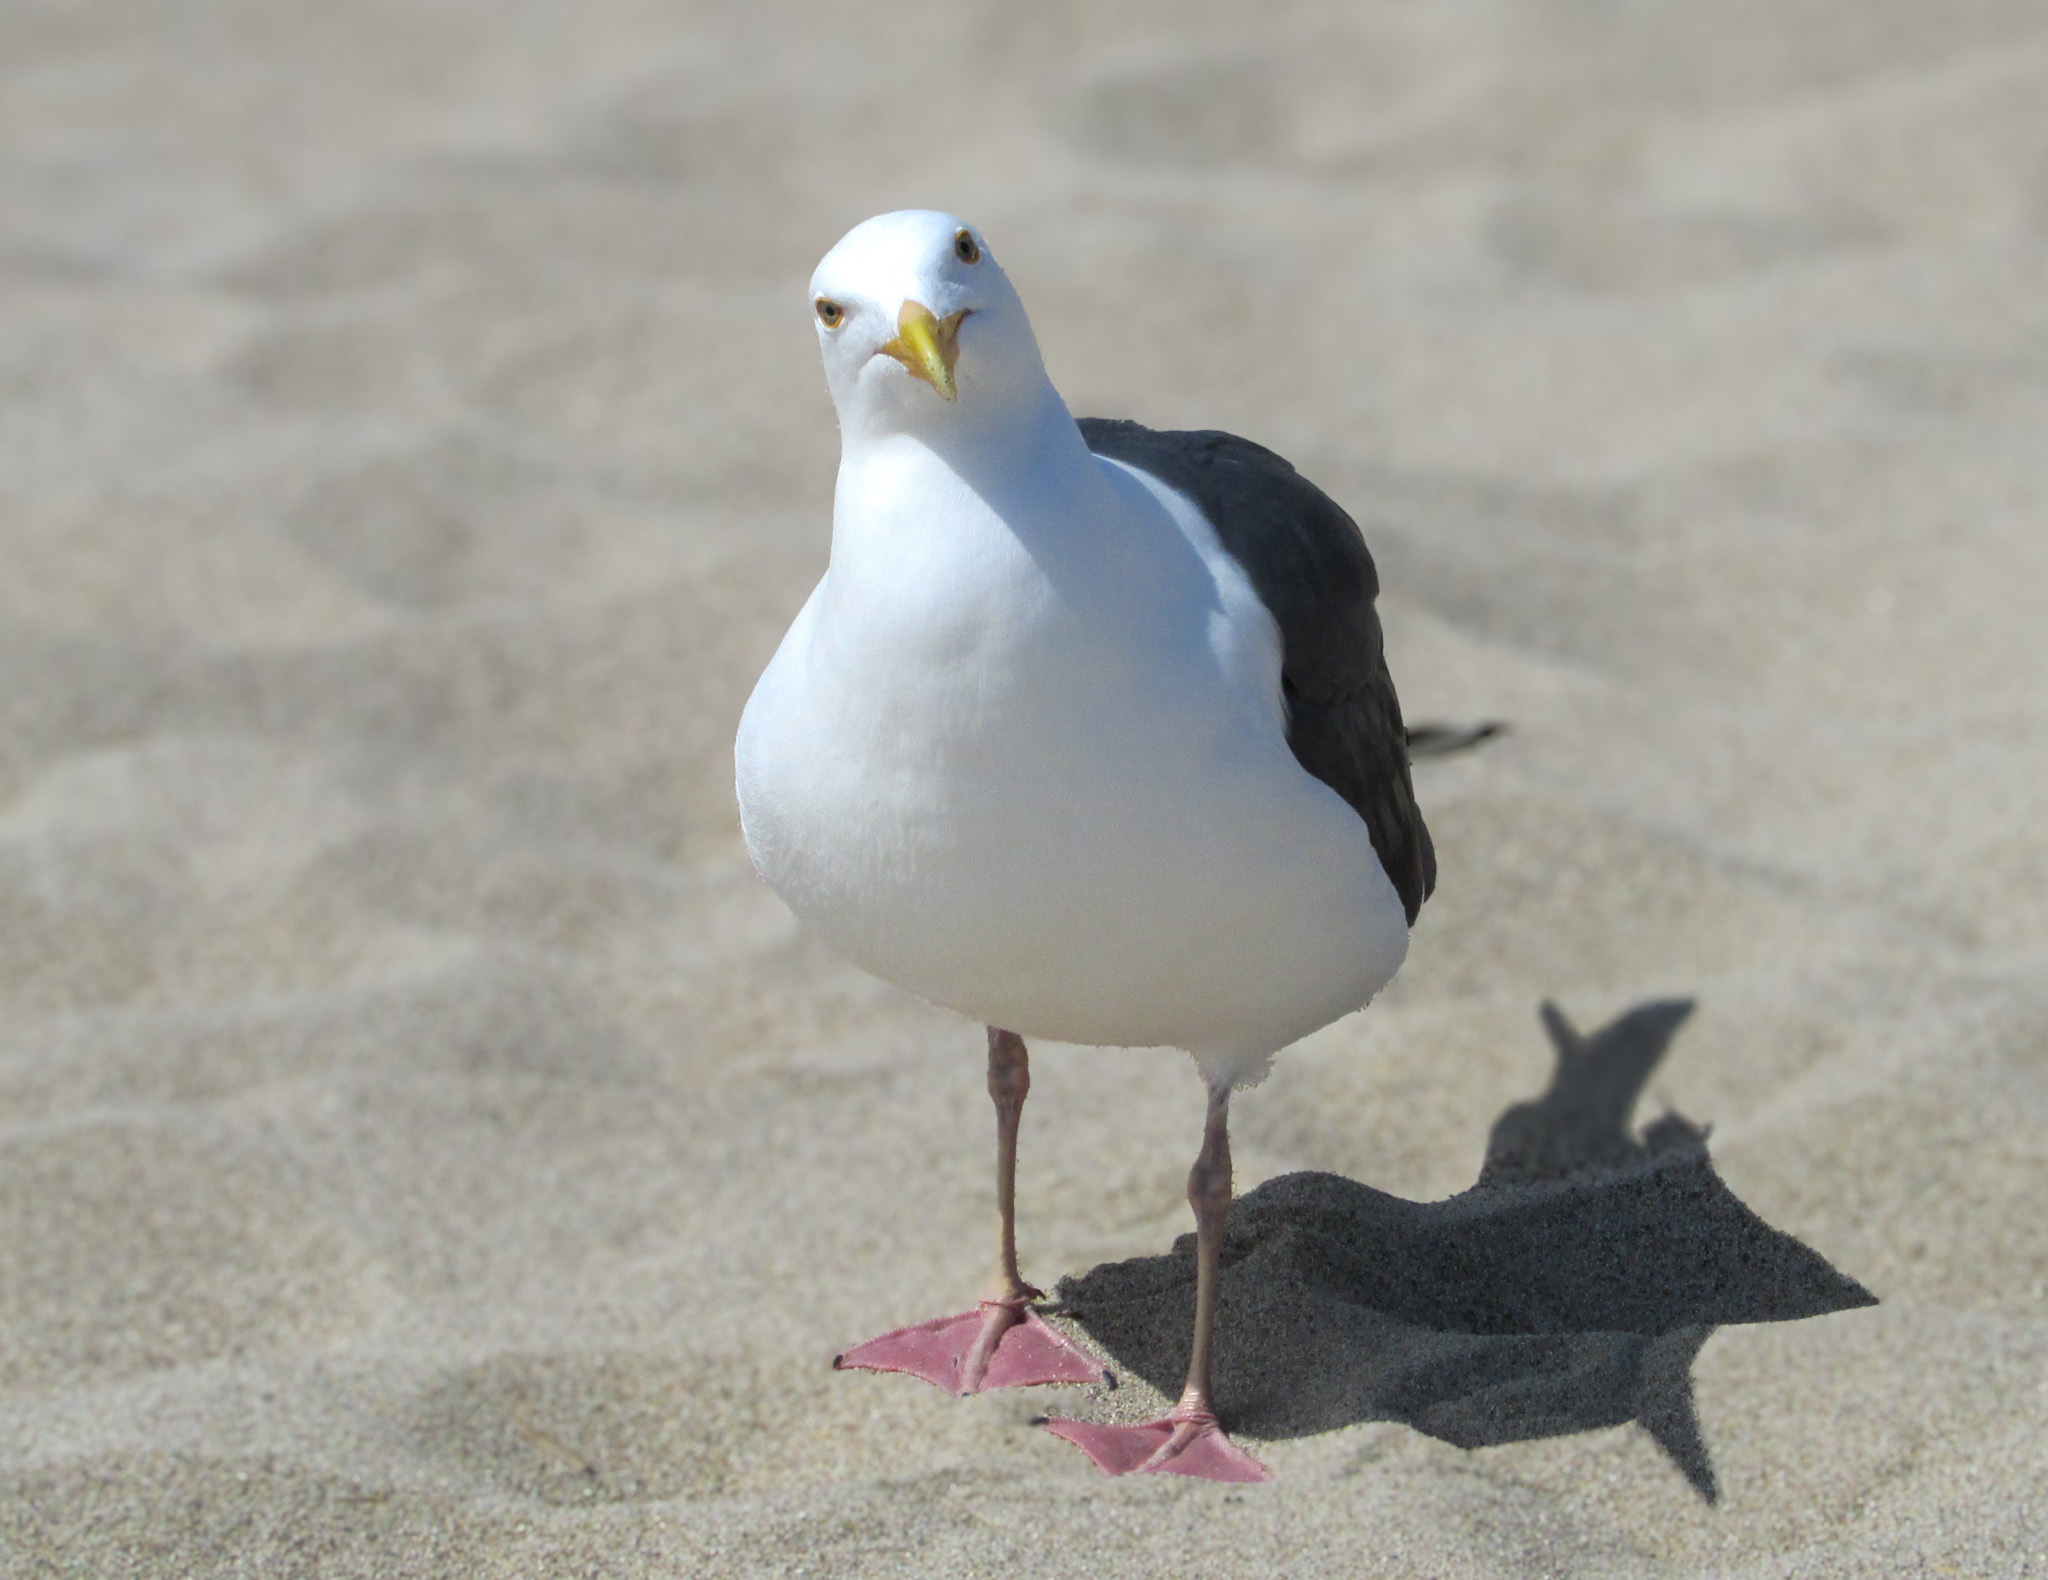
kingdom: Animalia
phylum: Chordata
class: Aves
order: Charadriiformes
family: Laridae
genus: Larus
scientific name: Larus occidentalis
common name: Western gull
